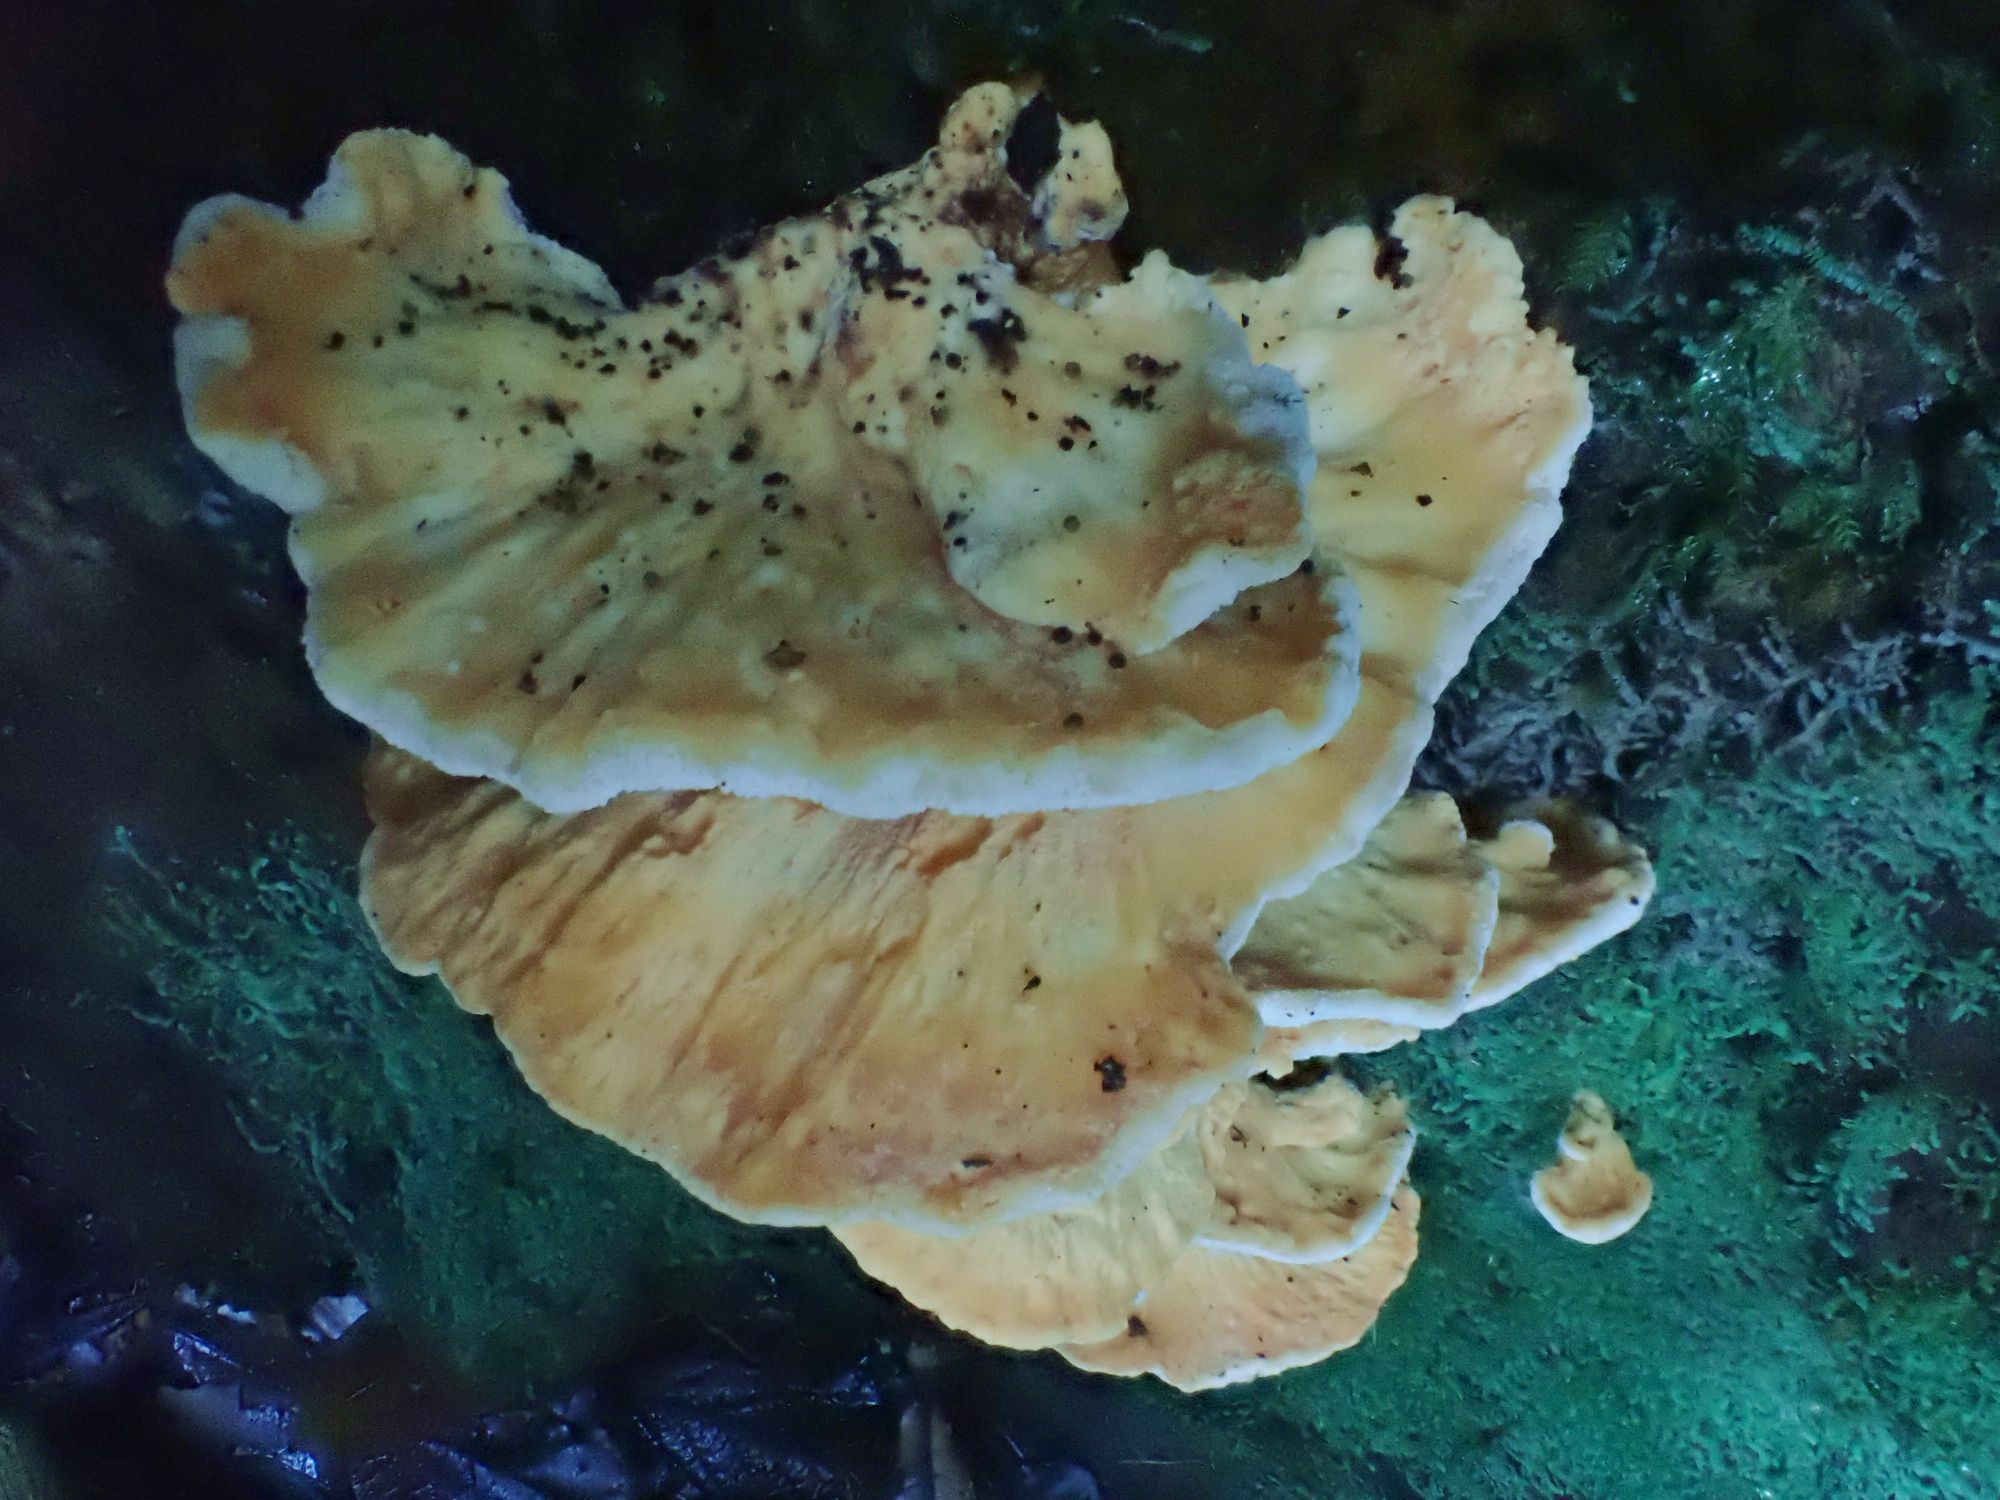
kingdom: Fungi
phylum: Basidiomycota
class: Agaricomycetes
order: Polyporales
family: Laetiporaceae
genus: Laetiporus
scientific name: Laetiporus sulphureus
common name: Chicken of the woods
